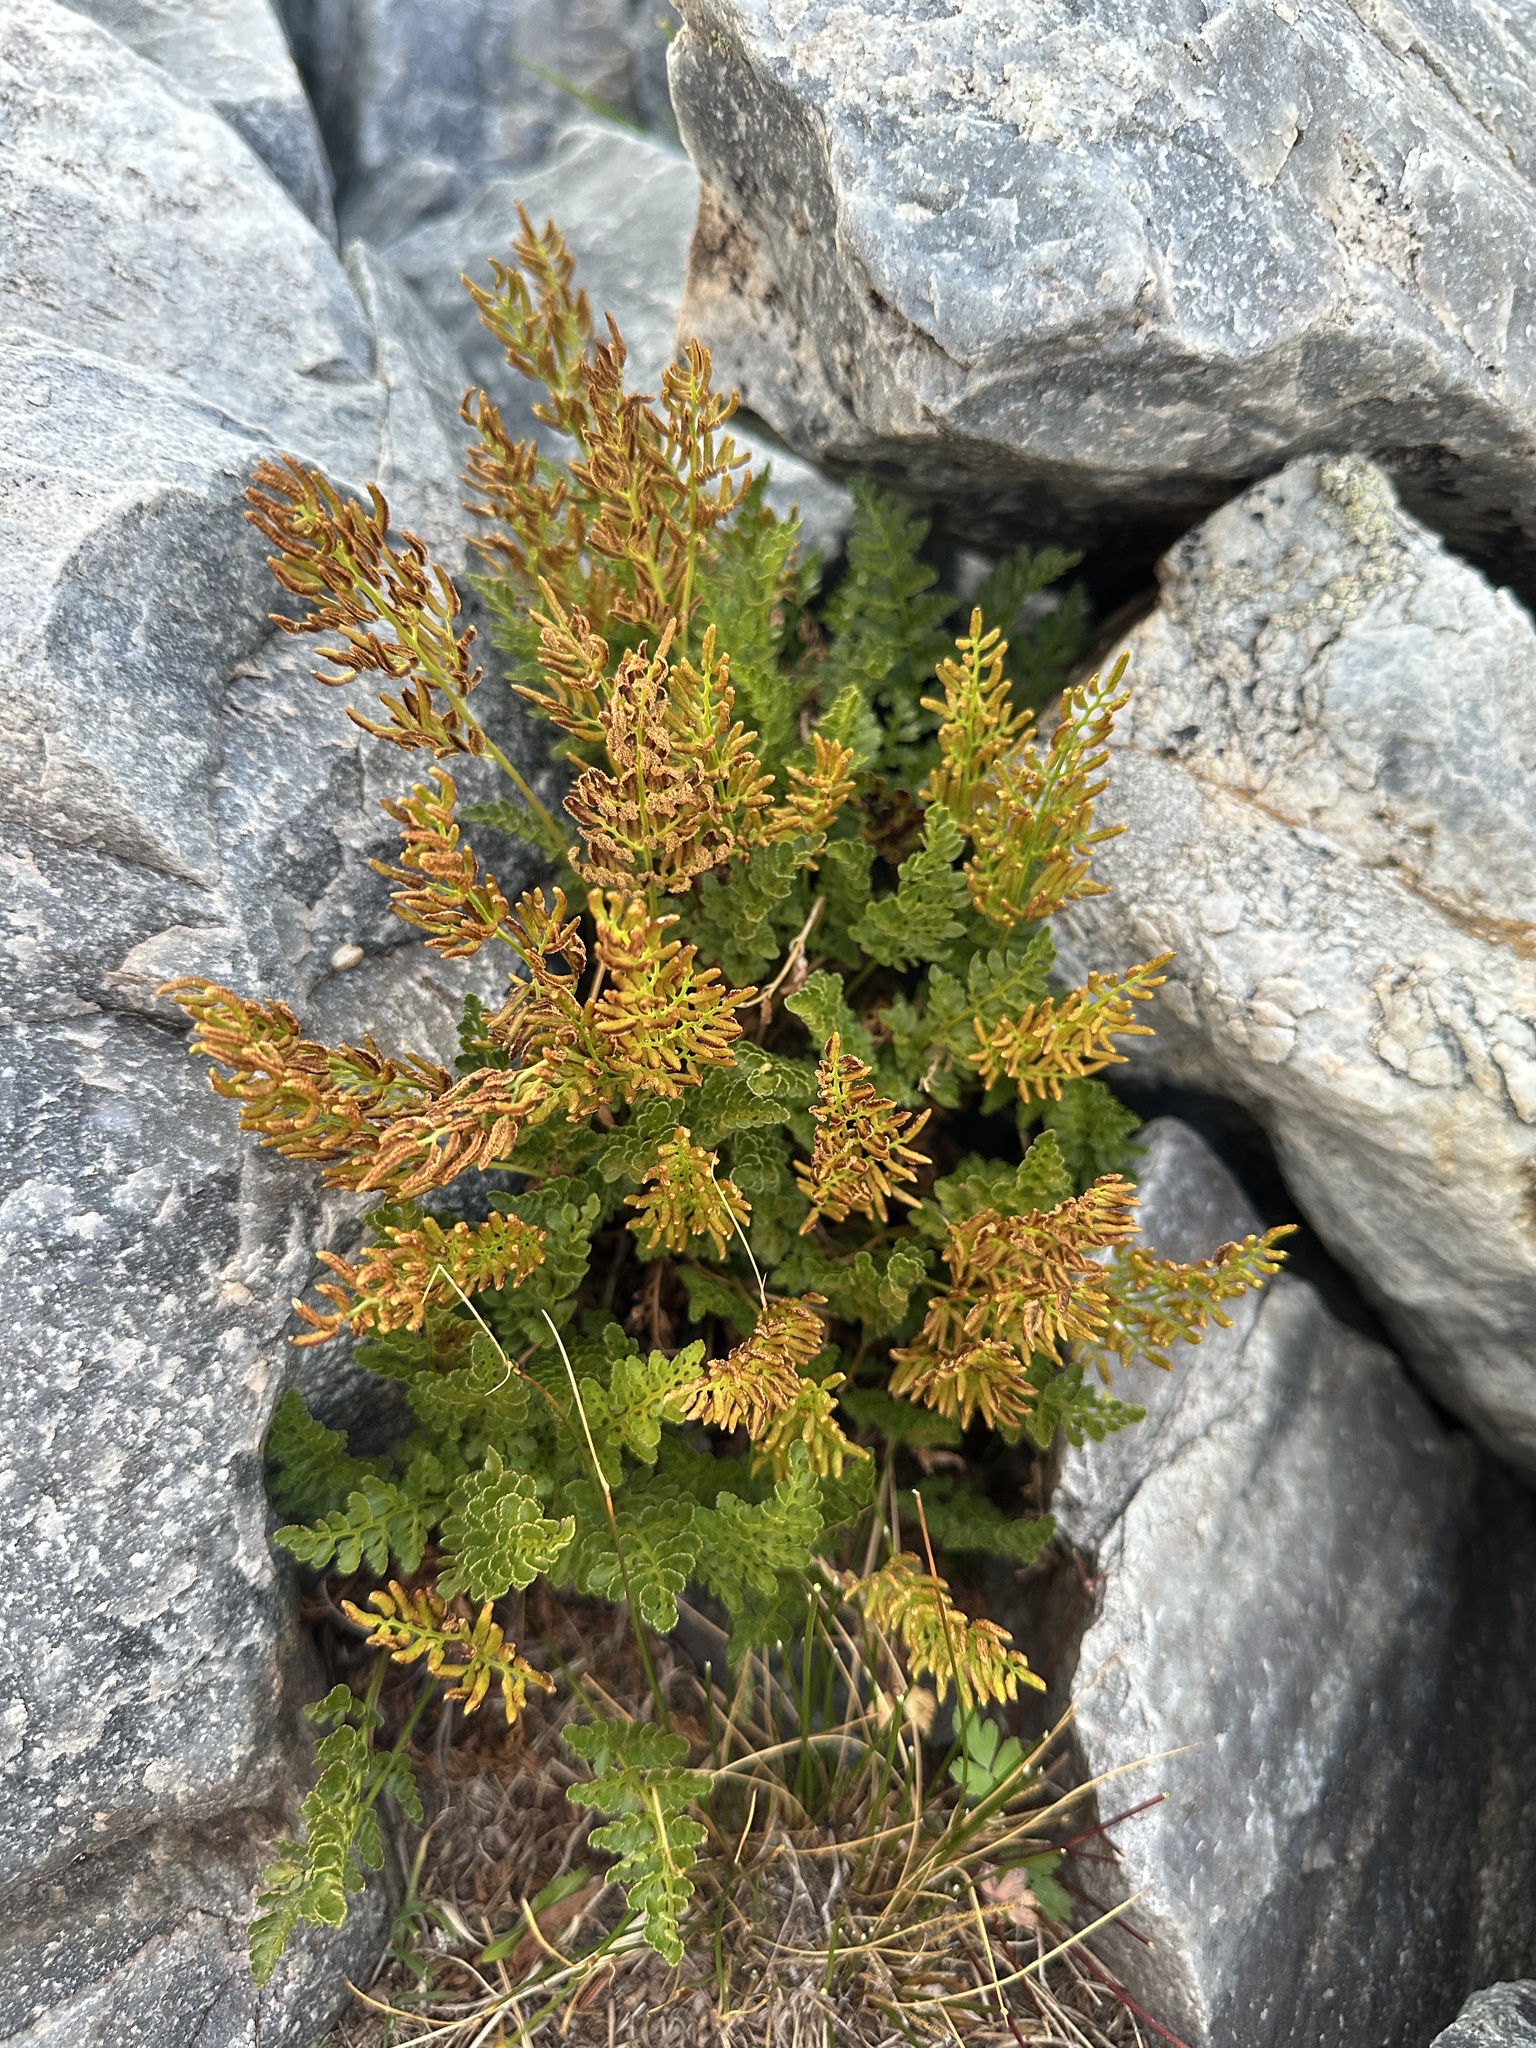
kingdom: Plantae
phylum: Tracheophyta
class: Polypodiopsida
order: Polypodiales
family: Pteridaceae
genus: Cryptogramma
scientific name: Cryptogramma acrostichoides
